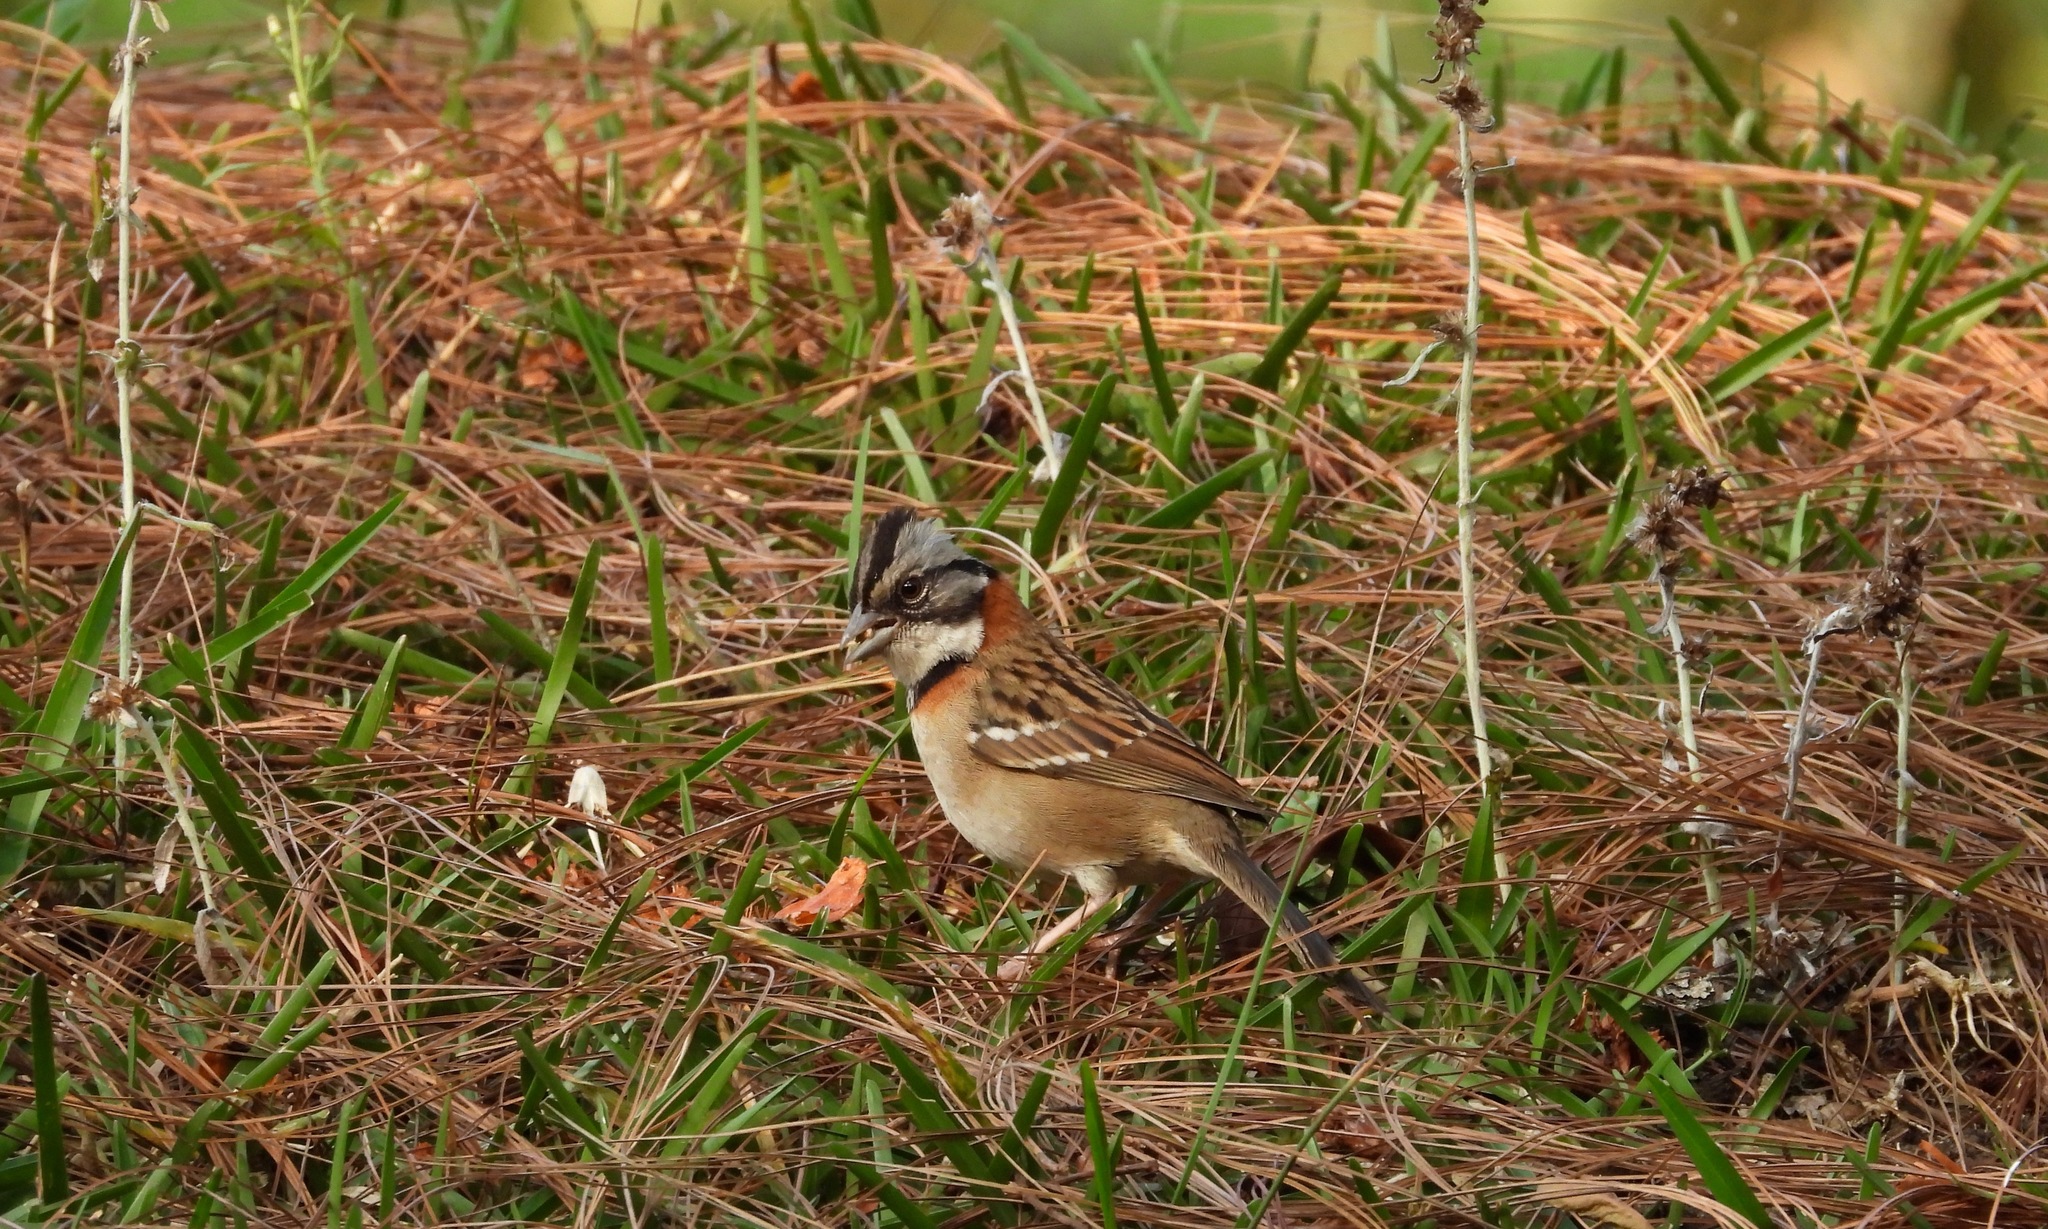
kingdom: Animalia
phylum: Chordata
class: Aves
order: Passeriformes
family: Passerellidae
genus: Zonotrichia
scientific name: Zonotrichia capensis
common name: Rufous-collared sparrow
